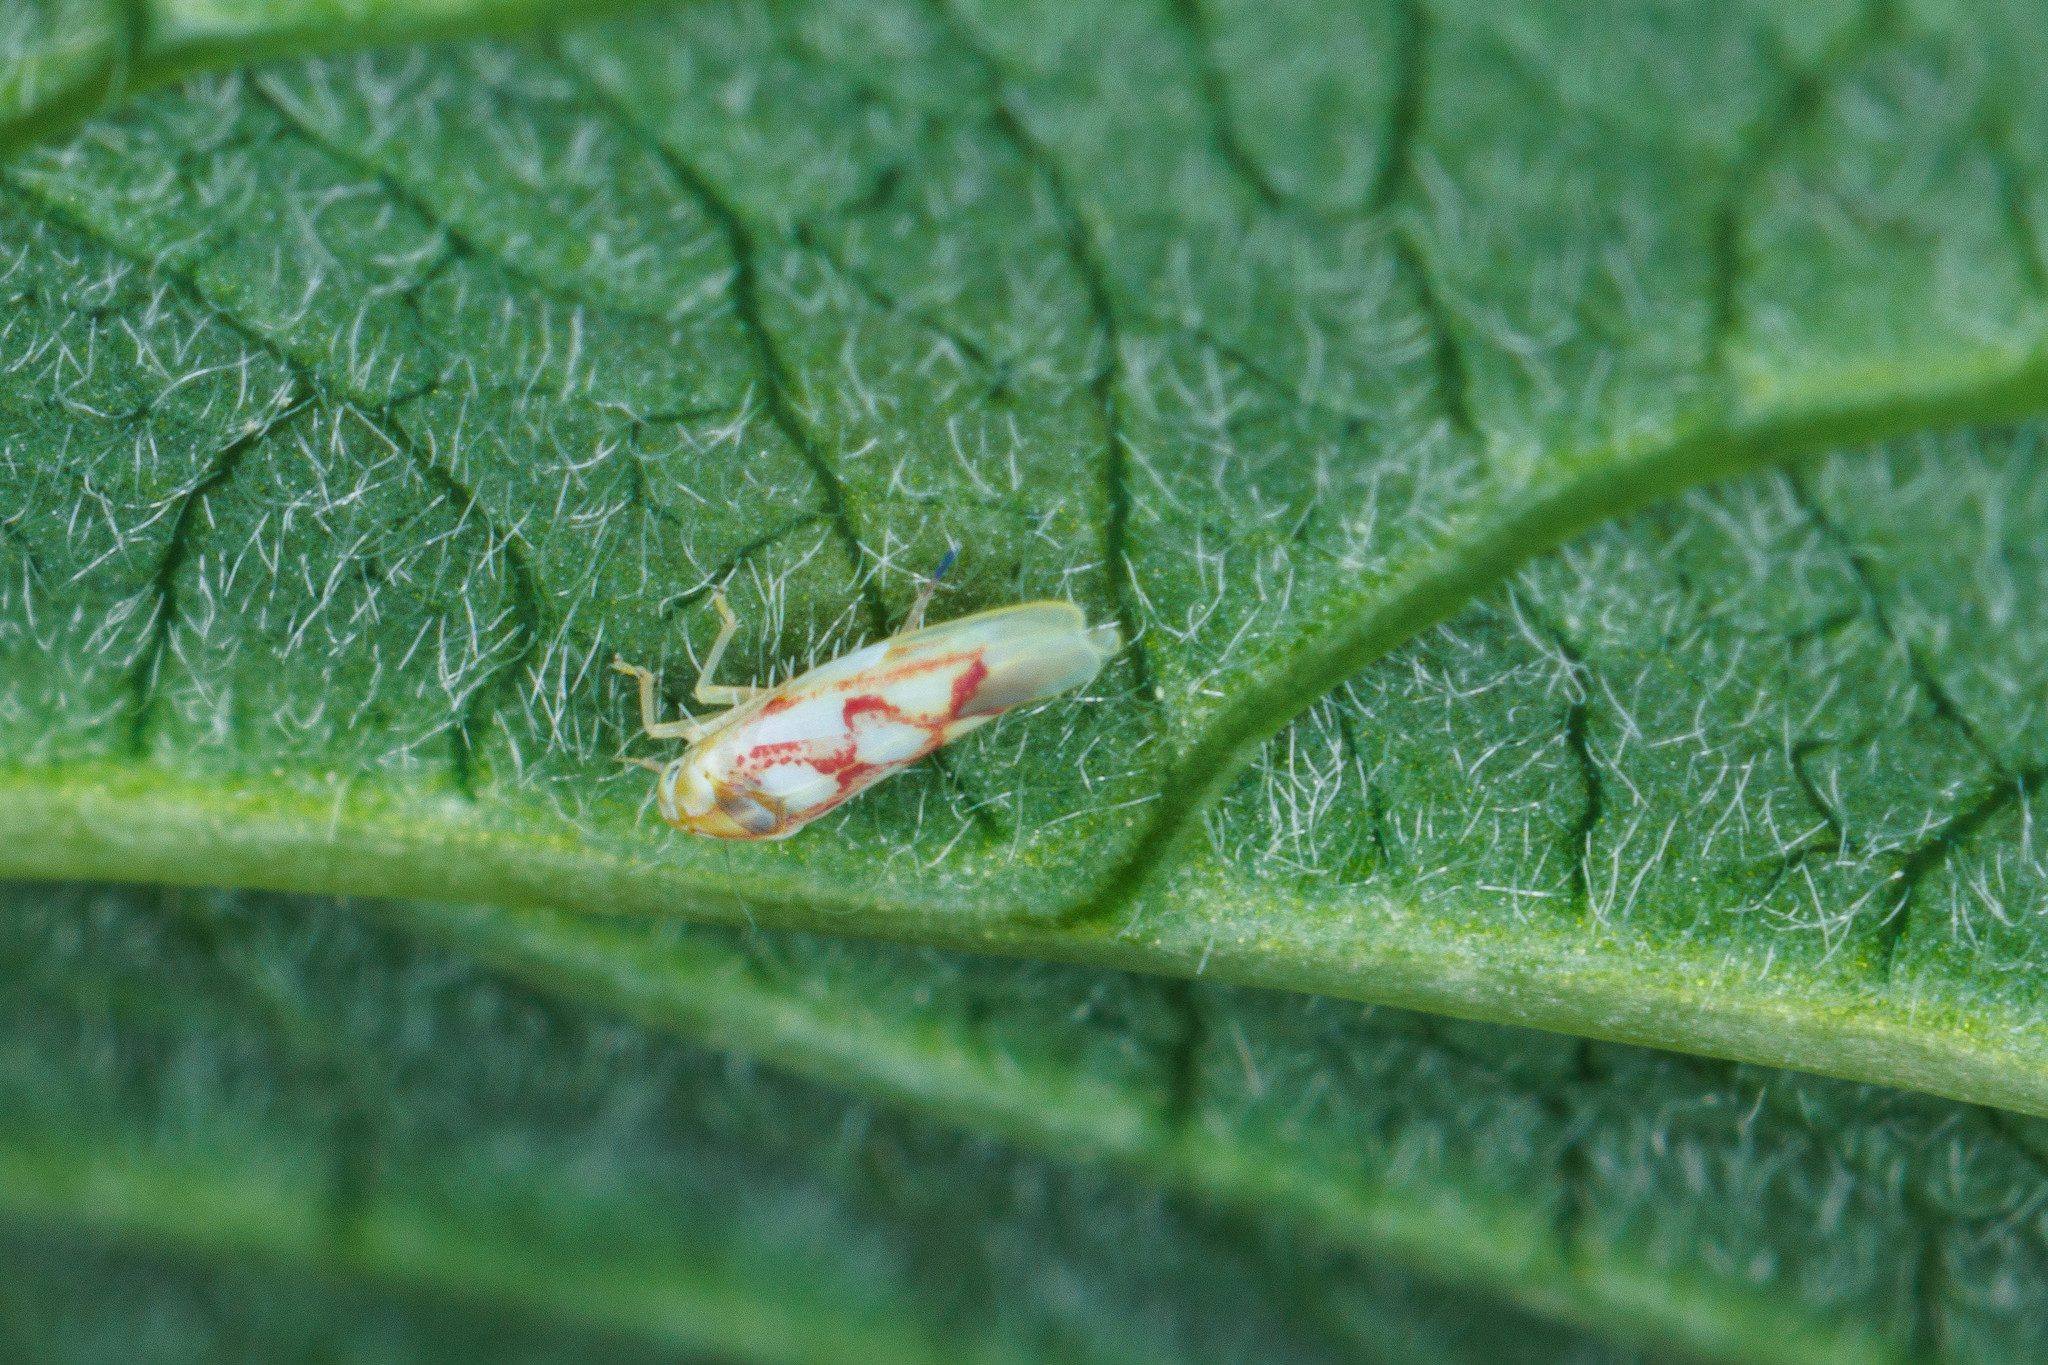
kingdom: Animalia
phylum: Arthropoda
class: Insecta
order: Hemiptera
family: Cicadellidae
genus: Zygina
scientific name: Zygina flammigera
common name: Leafhopper
